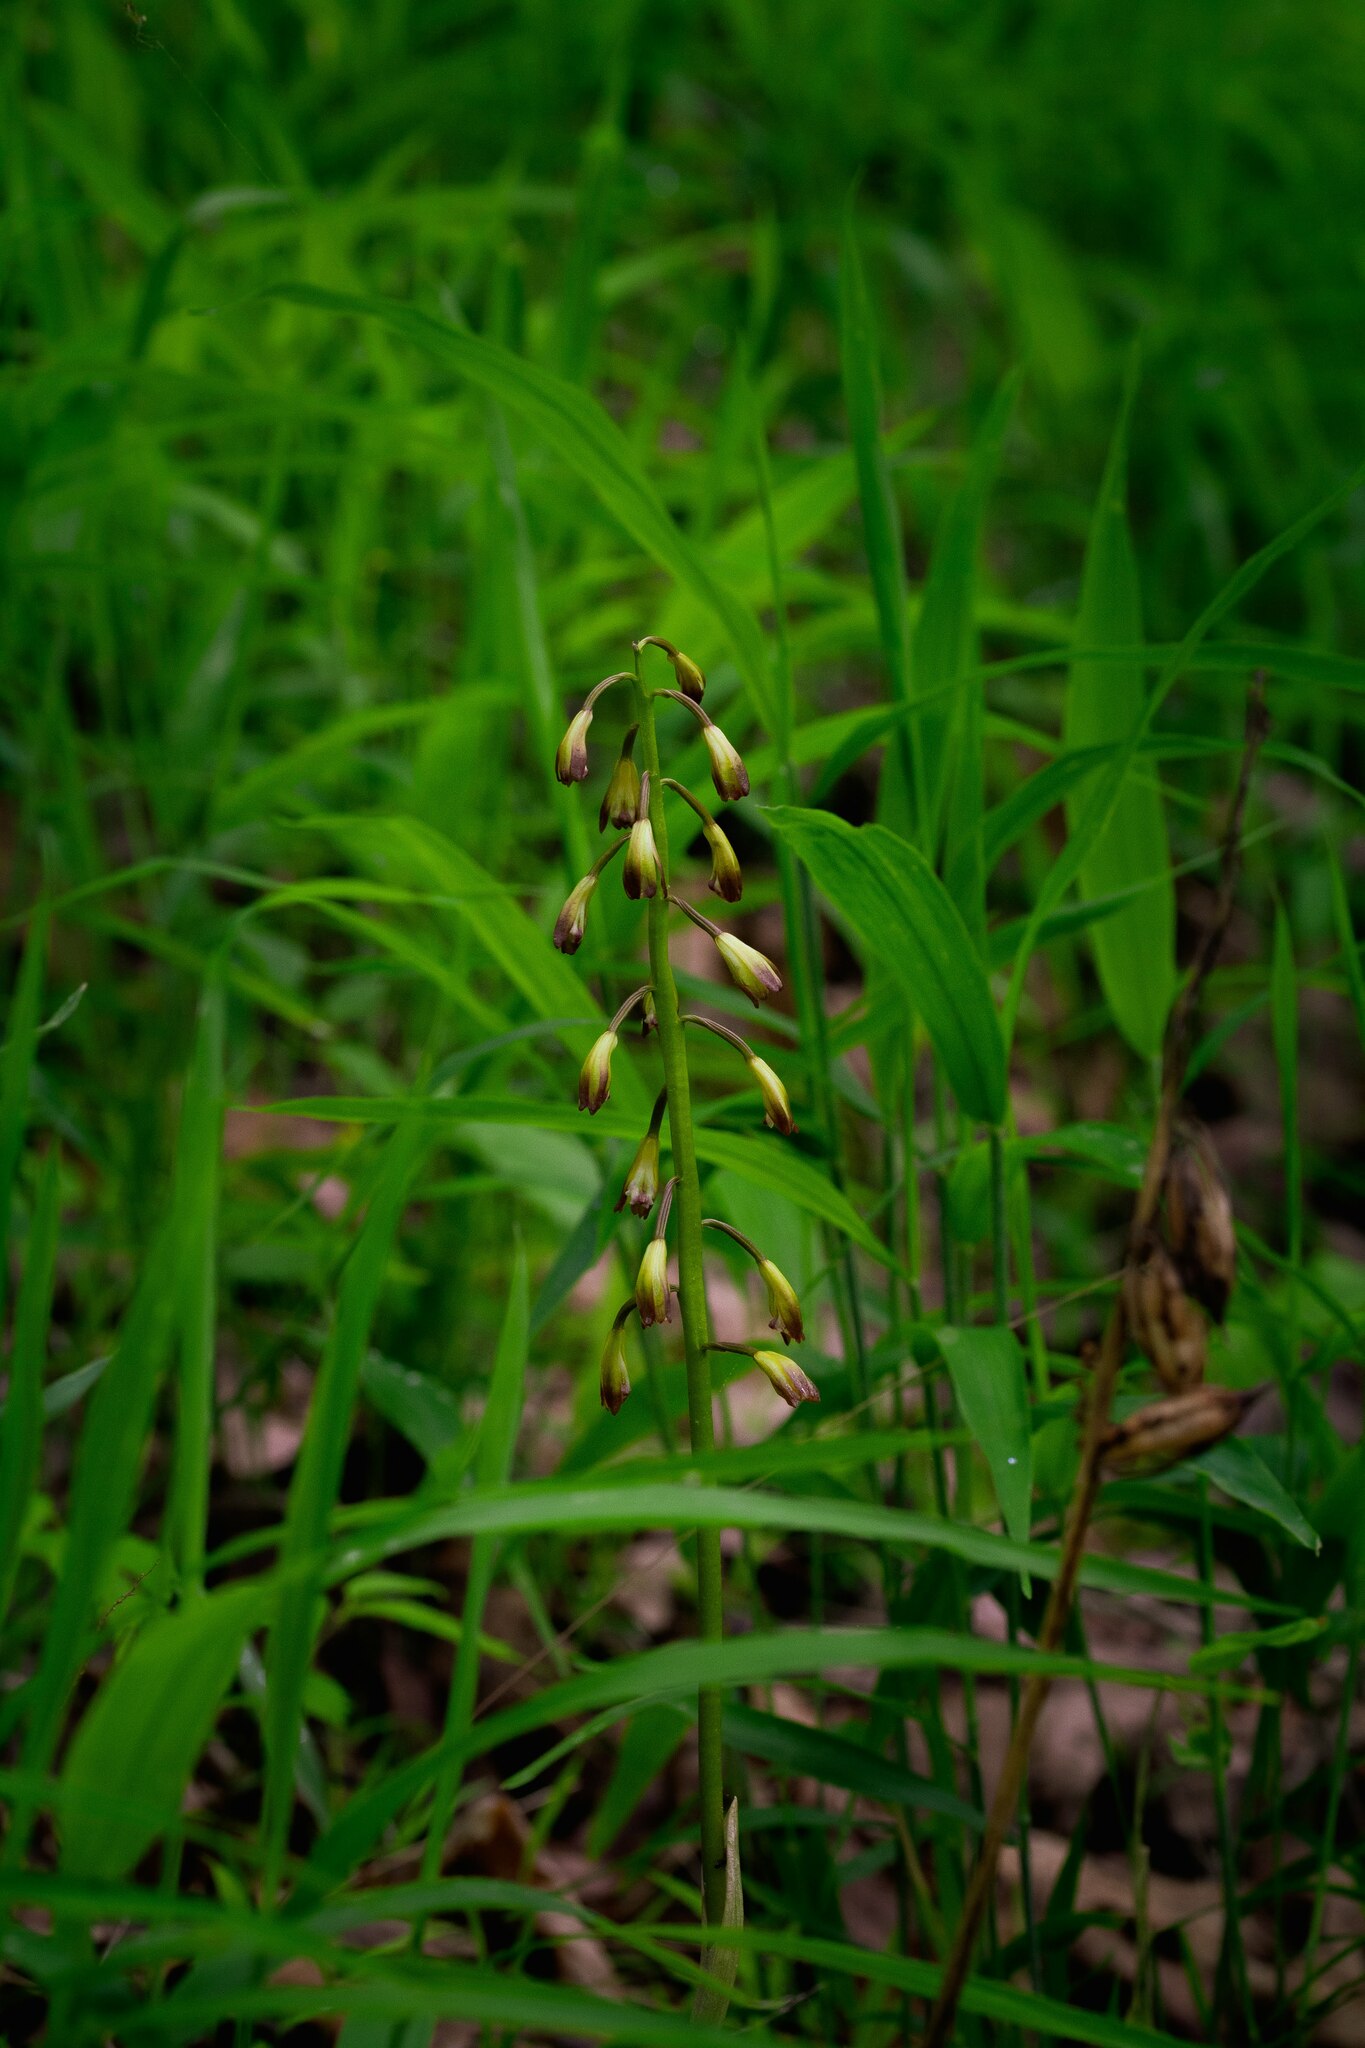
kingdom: Plantae
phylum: Tracheophyta
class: Liliopsida
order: Asparagales
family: Orchidaceae
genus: Aplectrum
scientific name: Aplectrum hyemale
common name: Adam-and-eve
